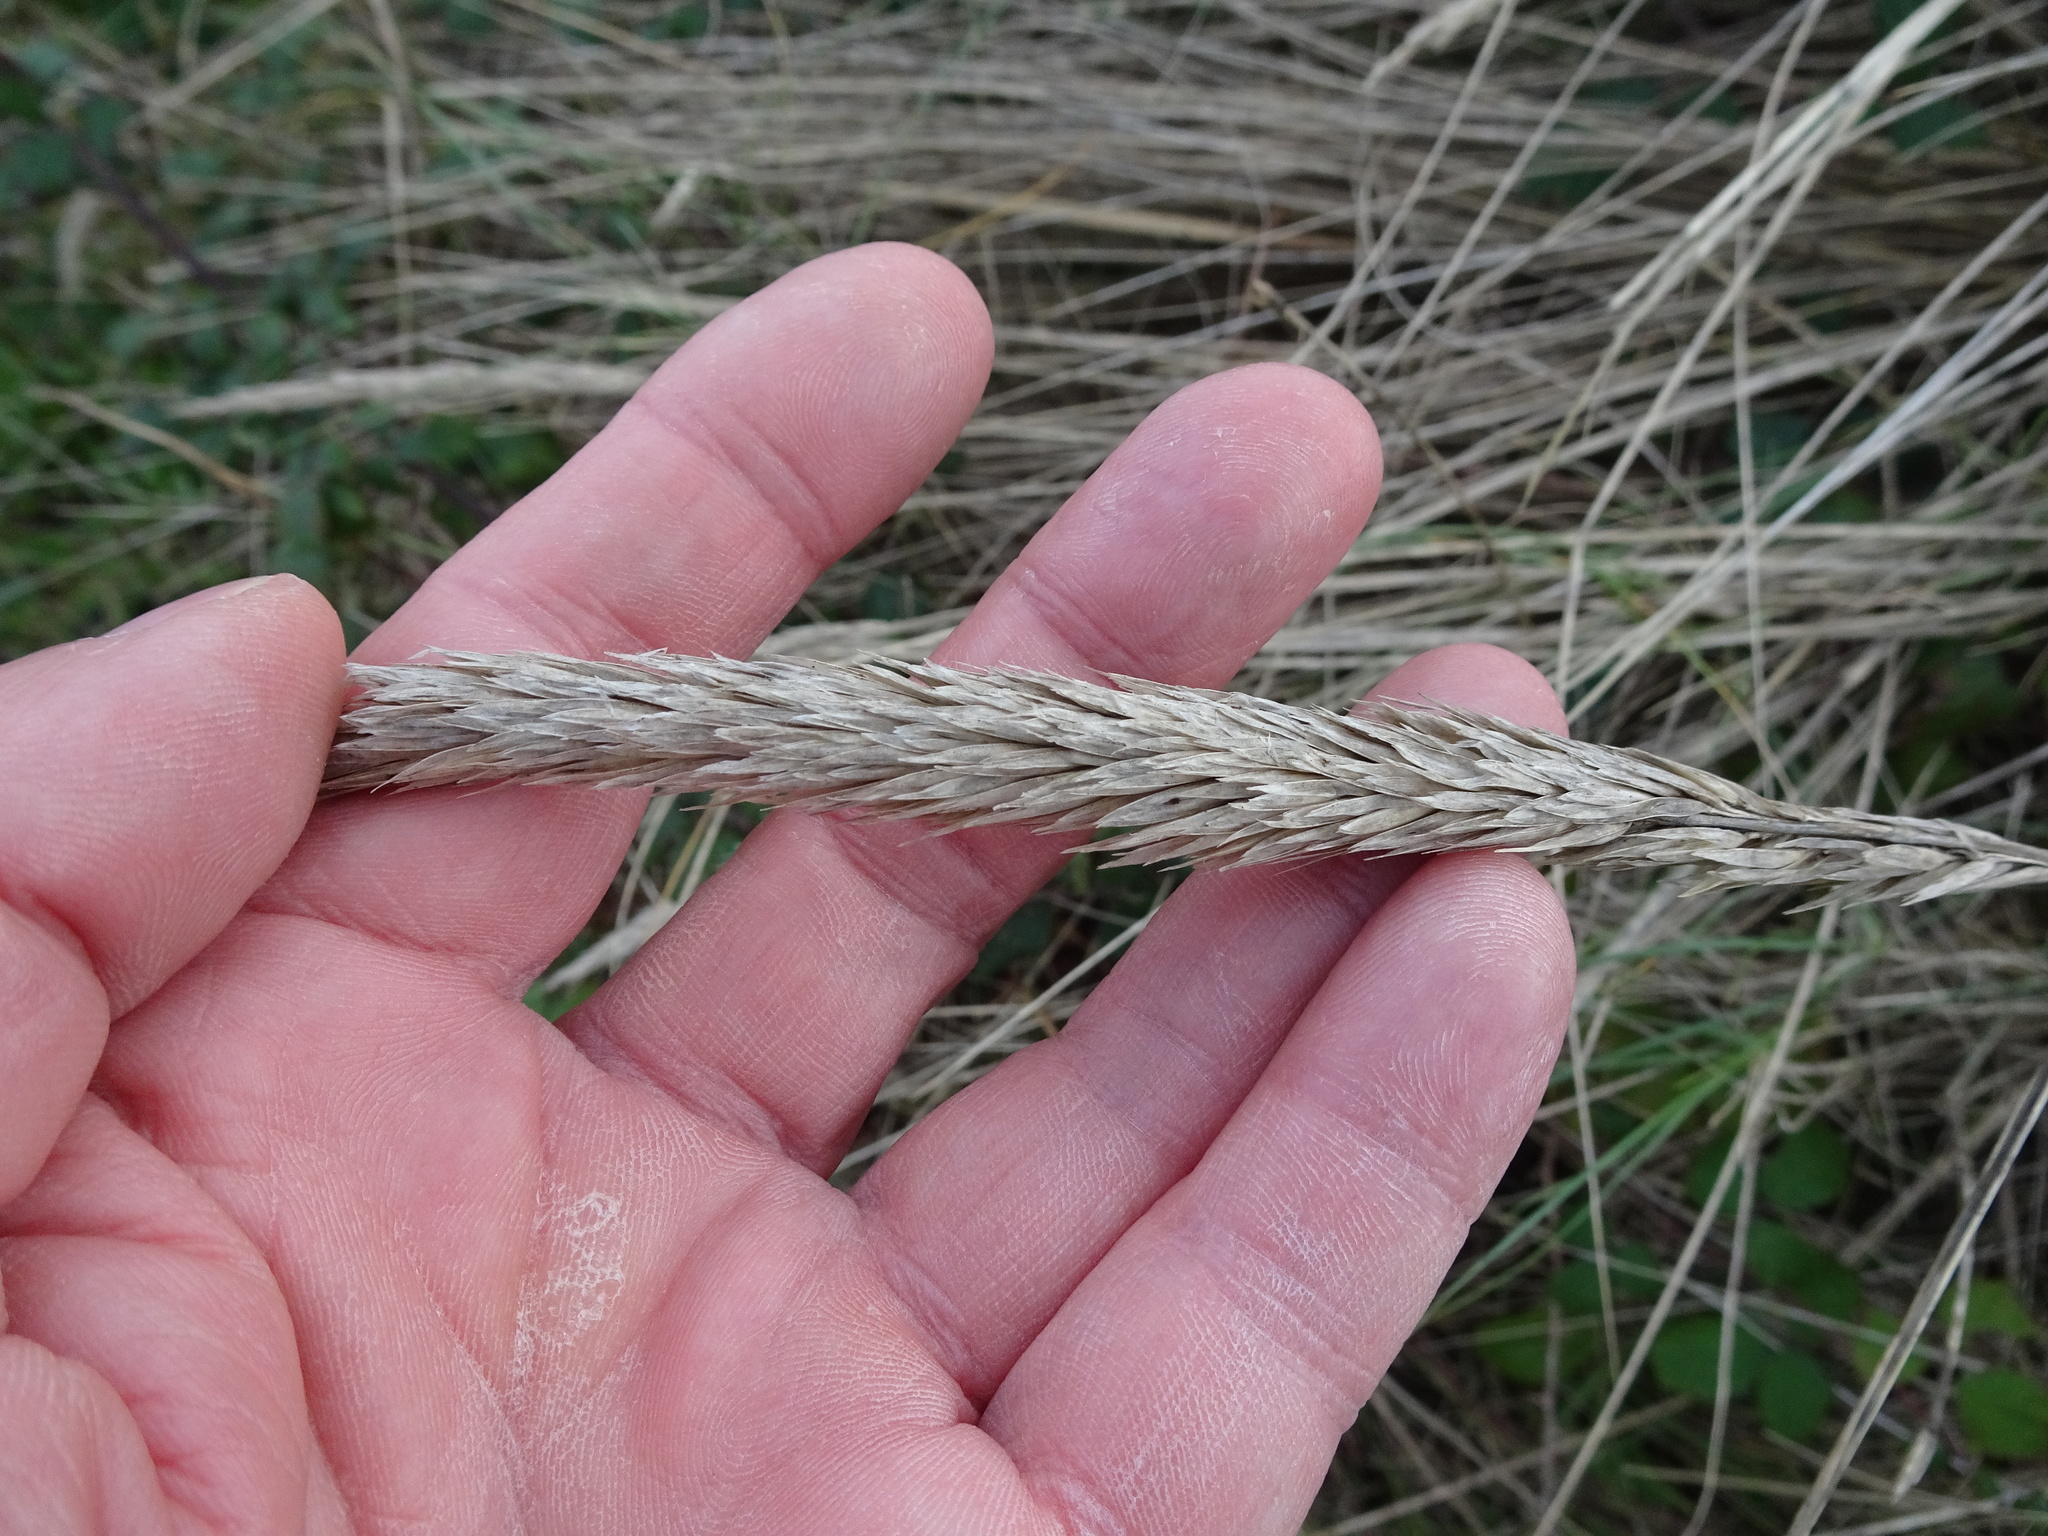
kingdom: Plantae
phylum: Tracheophyta
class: Liliopsida
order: Poales
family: Poaceae
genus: Calamagrostis
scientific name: Calamagrostis arenaria
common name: European beachgrass
